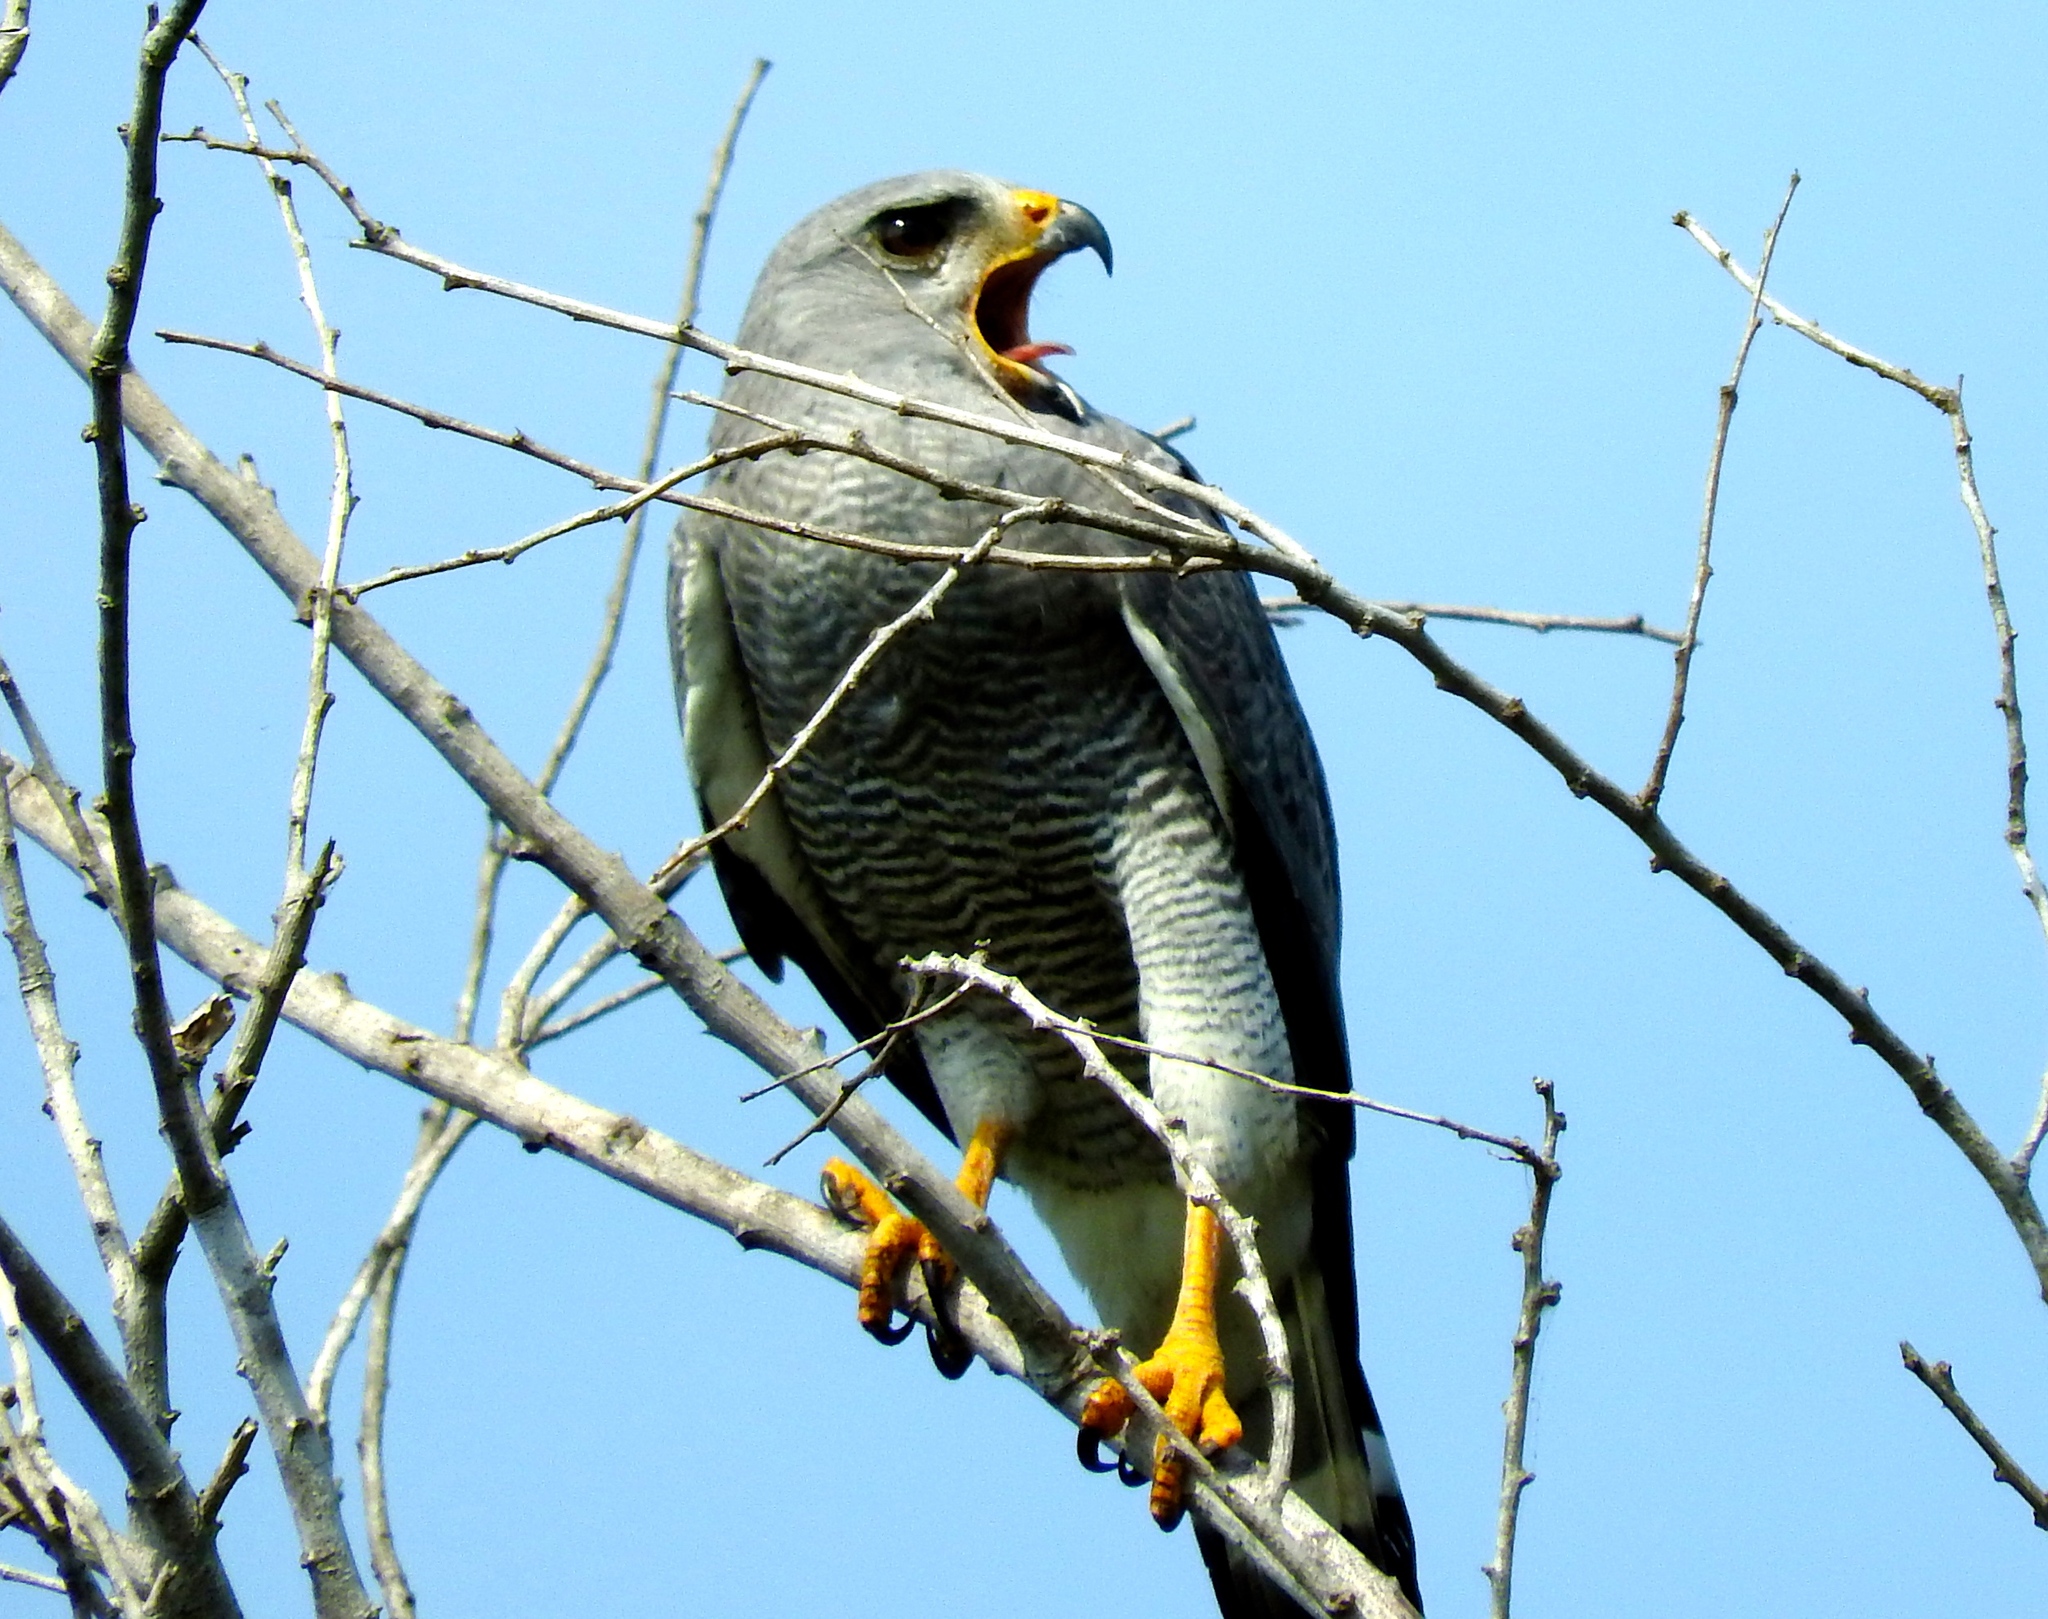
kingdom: Animalia
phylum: Chordata
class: Aves
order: Accipitriformes
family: Accipitridae
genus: Buteo
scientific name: Buteo nitidus
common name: Grey-lined hawk
